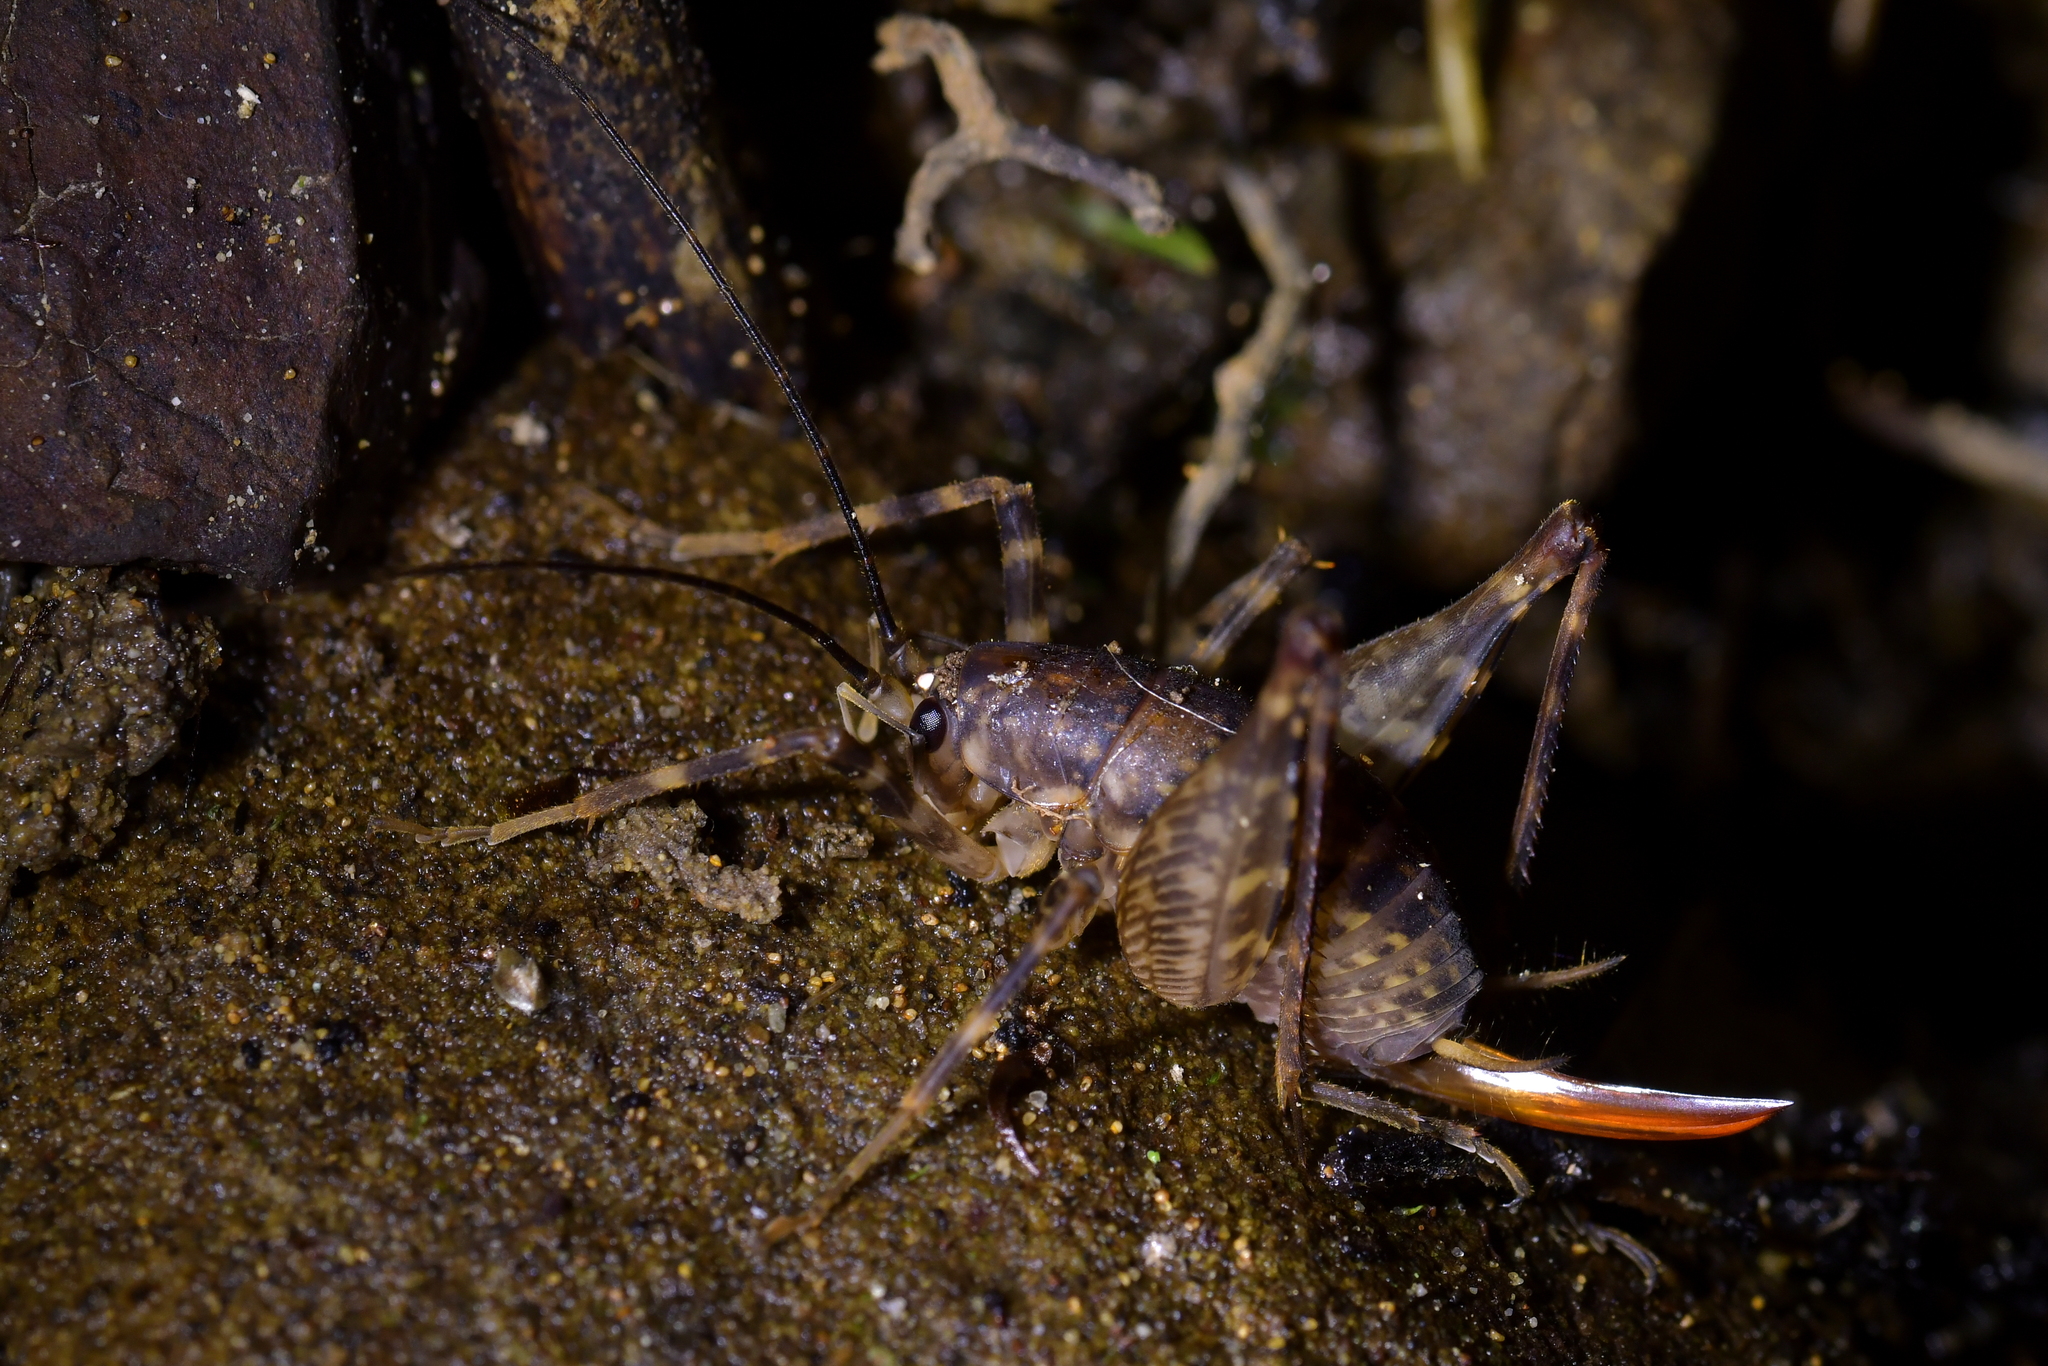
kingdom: Animalia
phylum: Arthropoda
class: Insecta
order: Orthoptera
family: Rhaphidophoridae
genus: Miotopus
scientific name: Miotopus diversus
